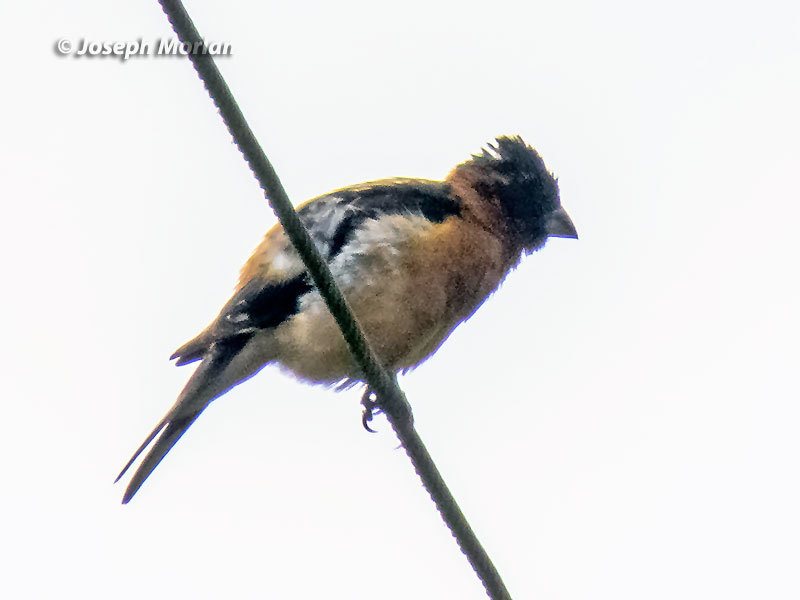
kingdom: Animalia
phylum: Chordata
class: Aves
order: Passeriformes
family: Cardinalidae
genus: Pheucticus
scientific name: Pheucticus melanocephalus
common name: Black-headed grosbeak
